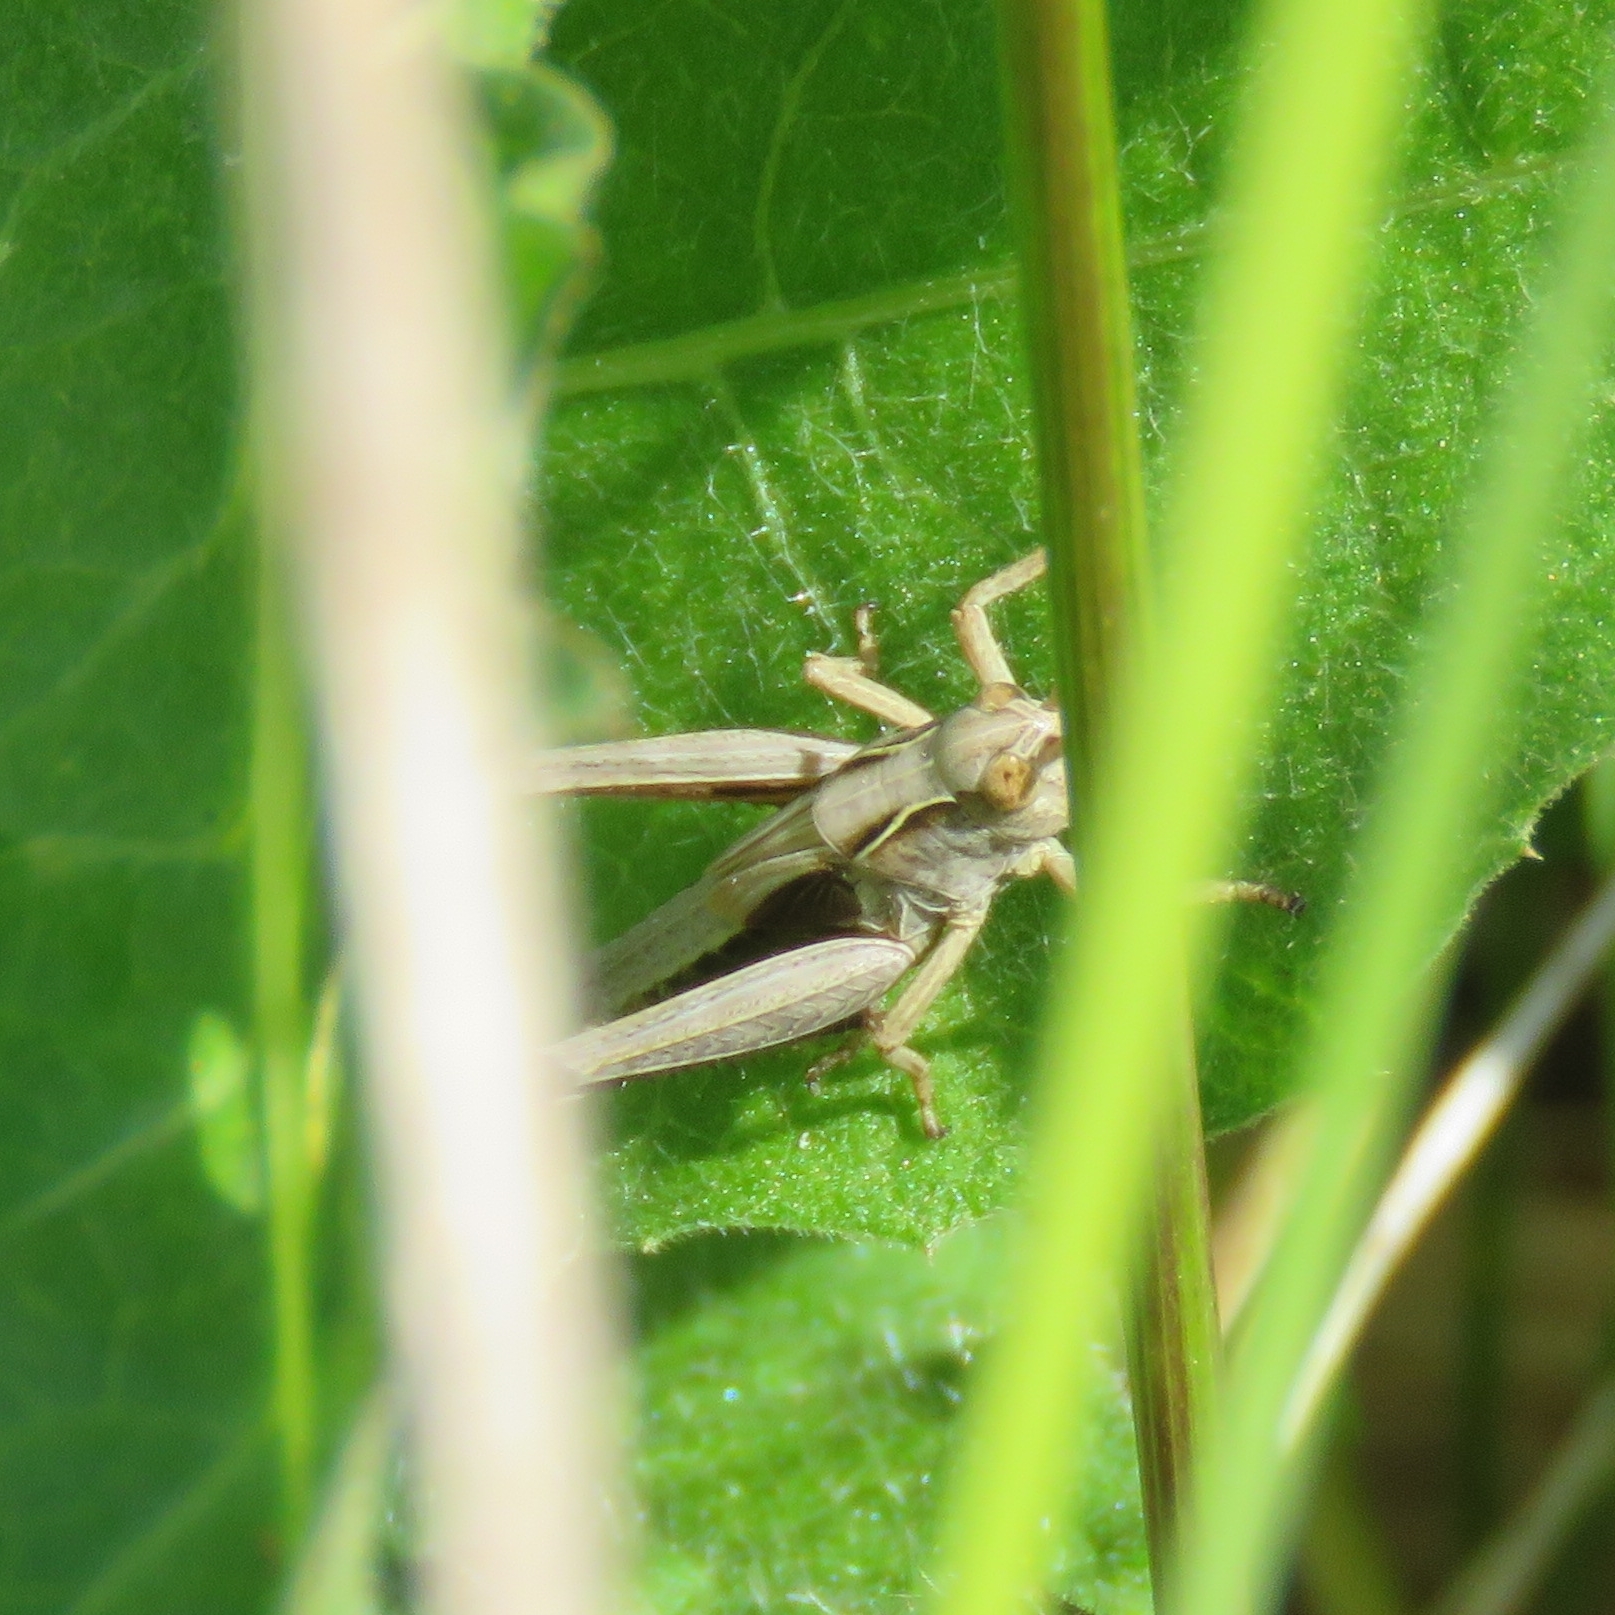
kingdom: Animalia
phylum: Arthropoda
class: Insecta
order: Orthoptera
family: Acrididae
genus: Omocestus
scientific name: Omocestus viridulus
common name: Common green grasshopper
